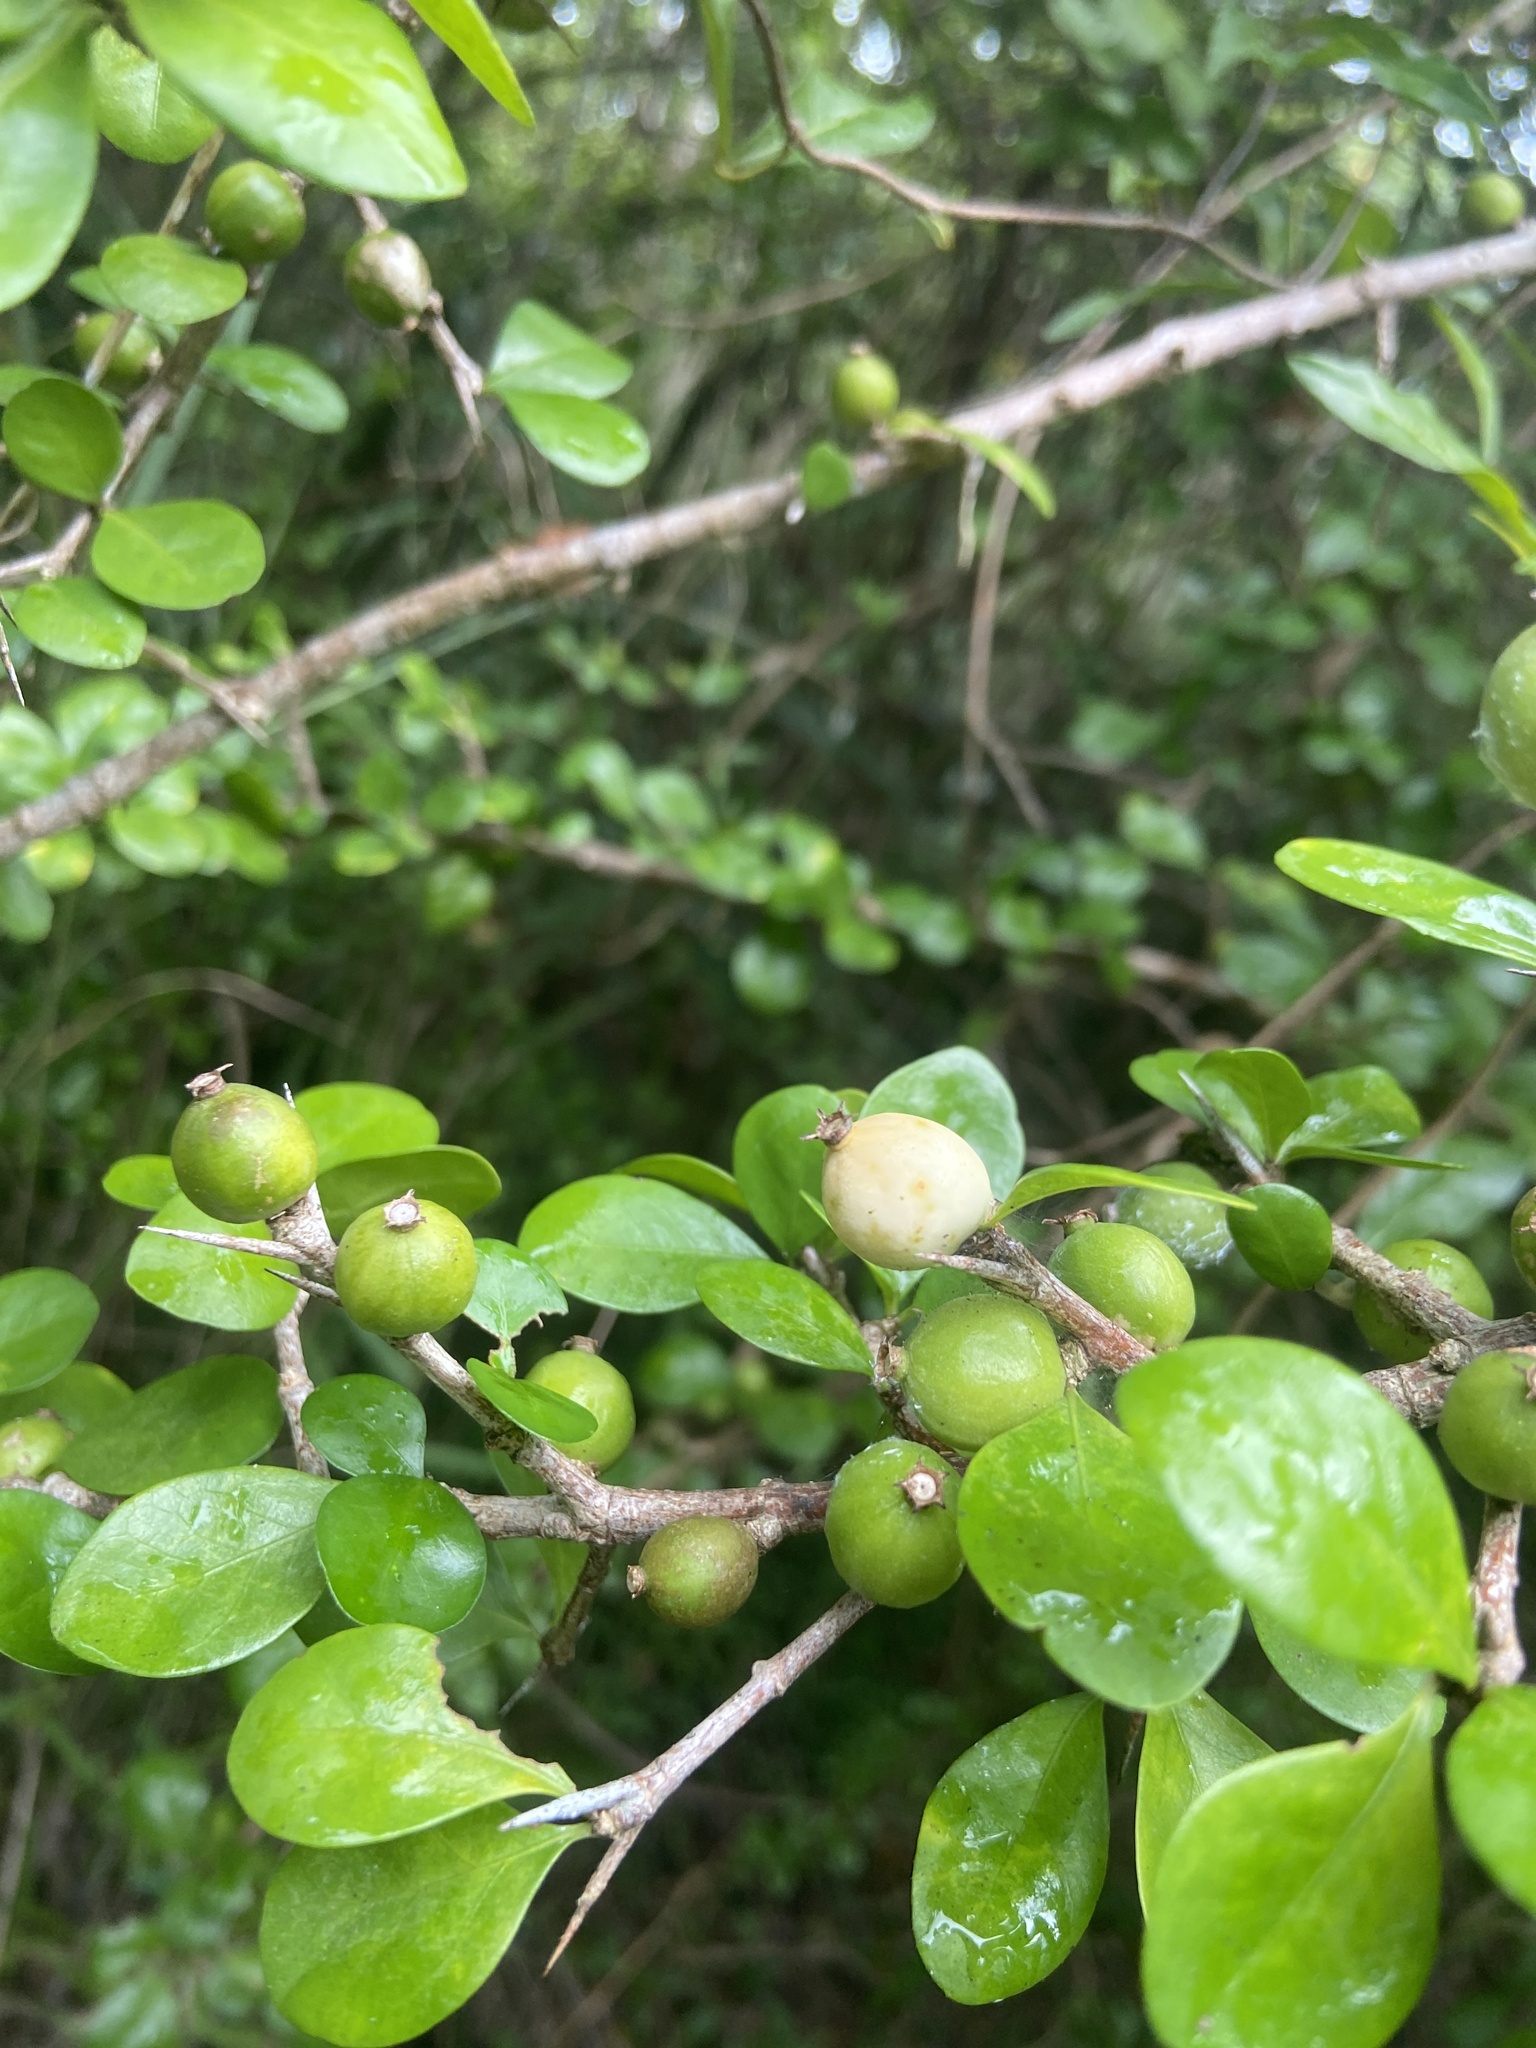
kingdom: Plantae
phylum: Tracheophyta
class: Magnoliopsida
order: Gentianales
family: Rubiaceae
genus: Randia
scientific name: Randia aculeata
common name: Inkberry
